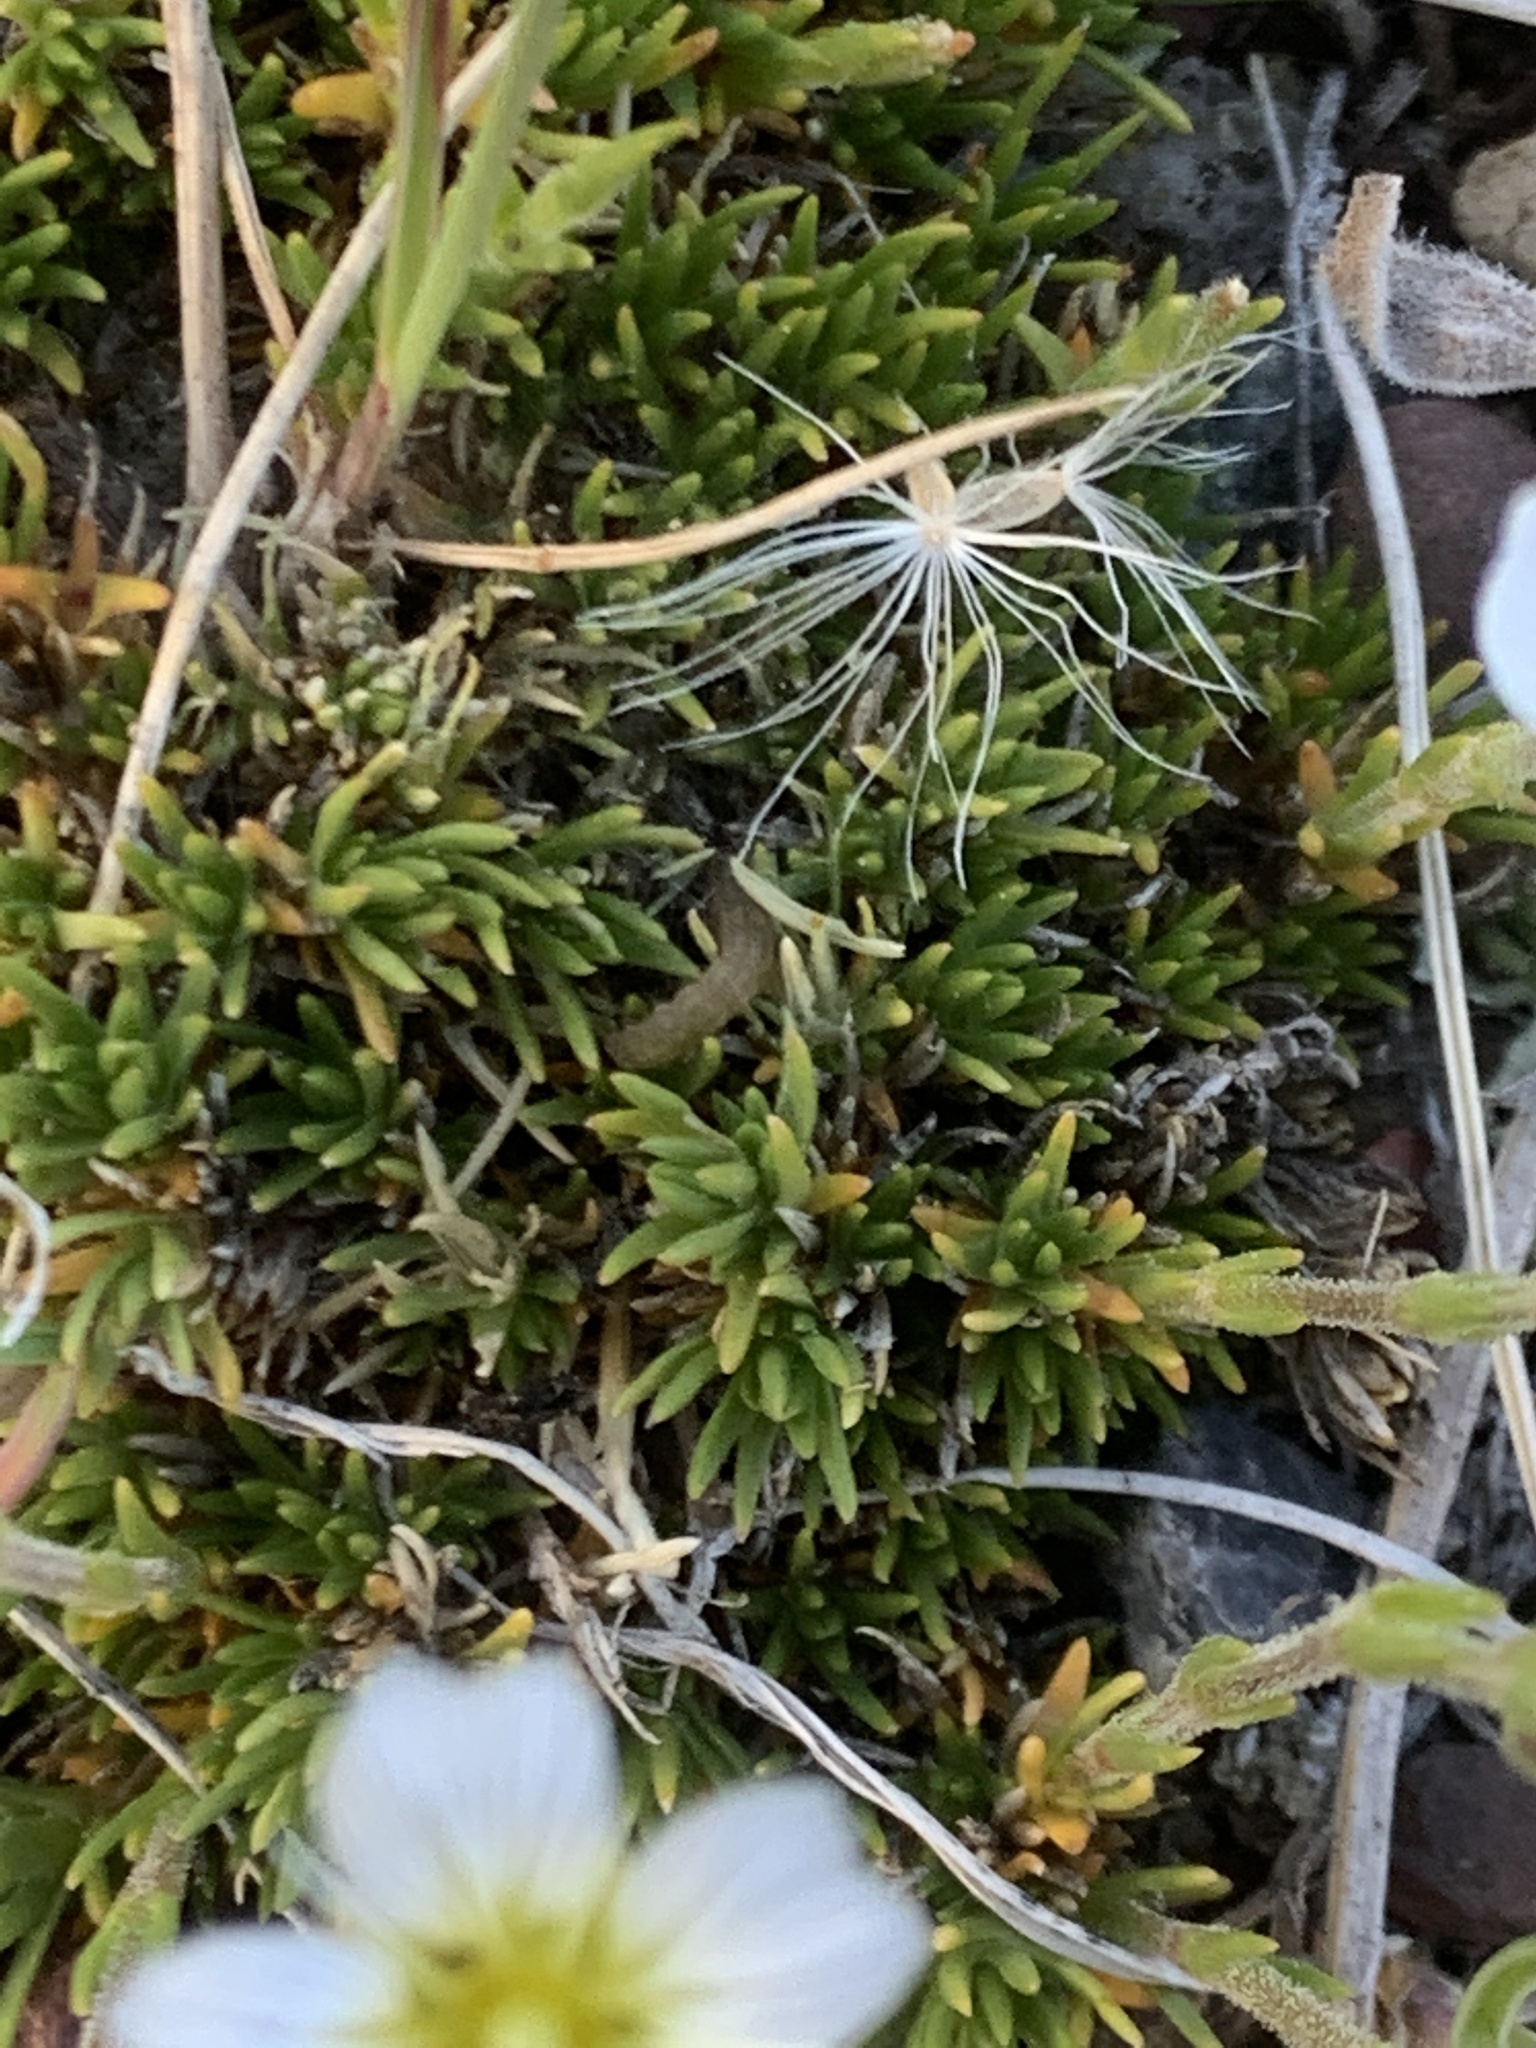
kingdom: Plantae
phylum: Tracheophyta
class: Magnoliopsida
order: Caryophyllales
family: Caryophyllaceae
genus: Cherleria
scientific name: Cherleria obtusiloba
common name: Alpine stitchwort
